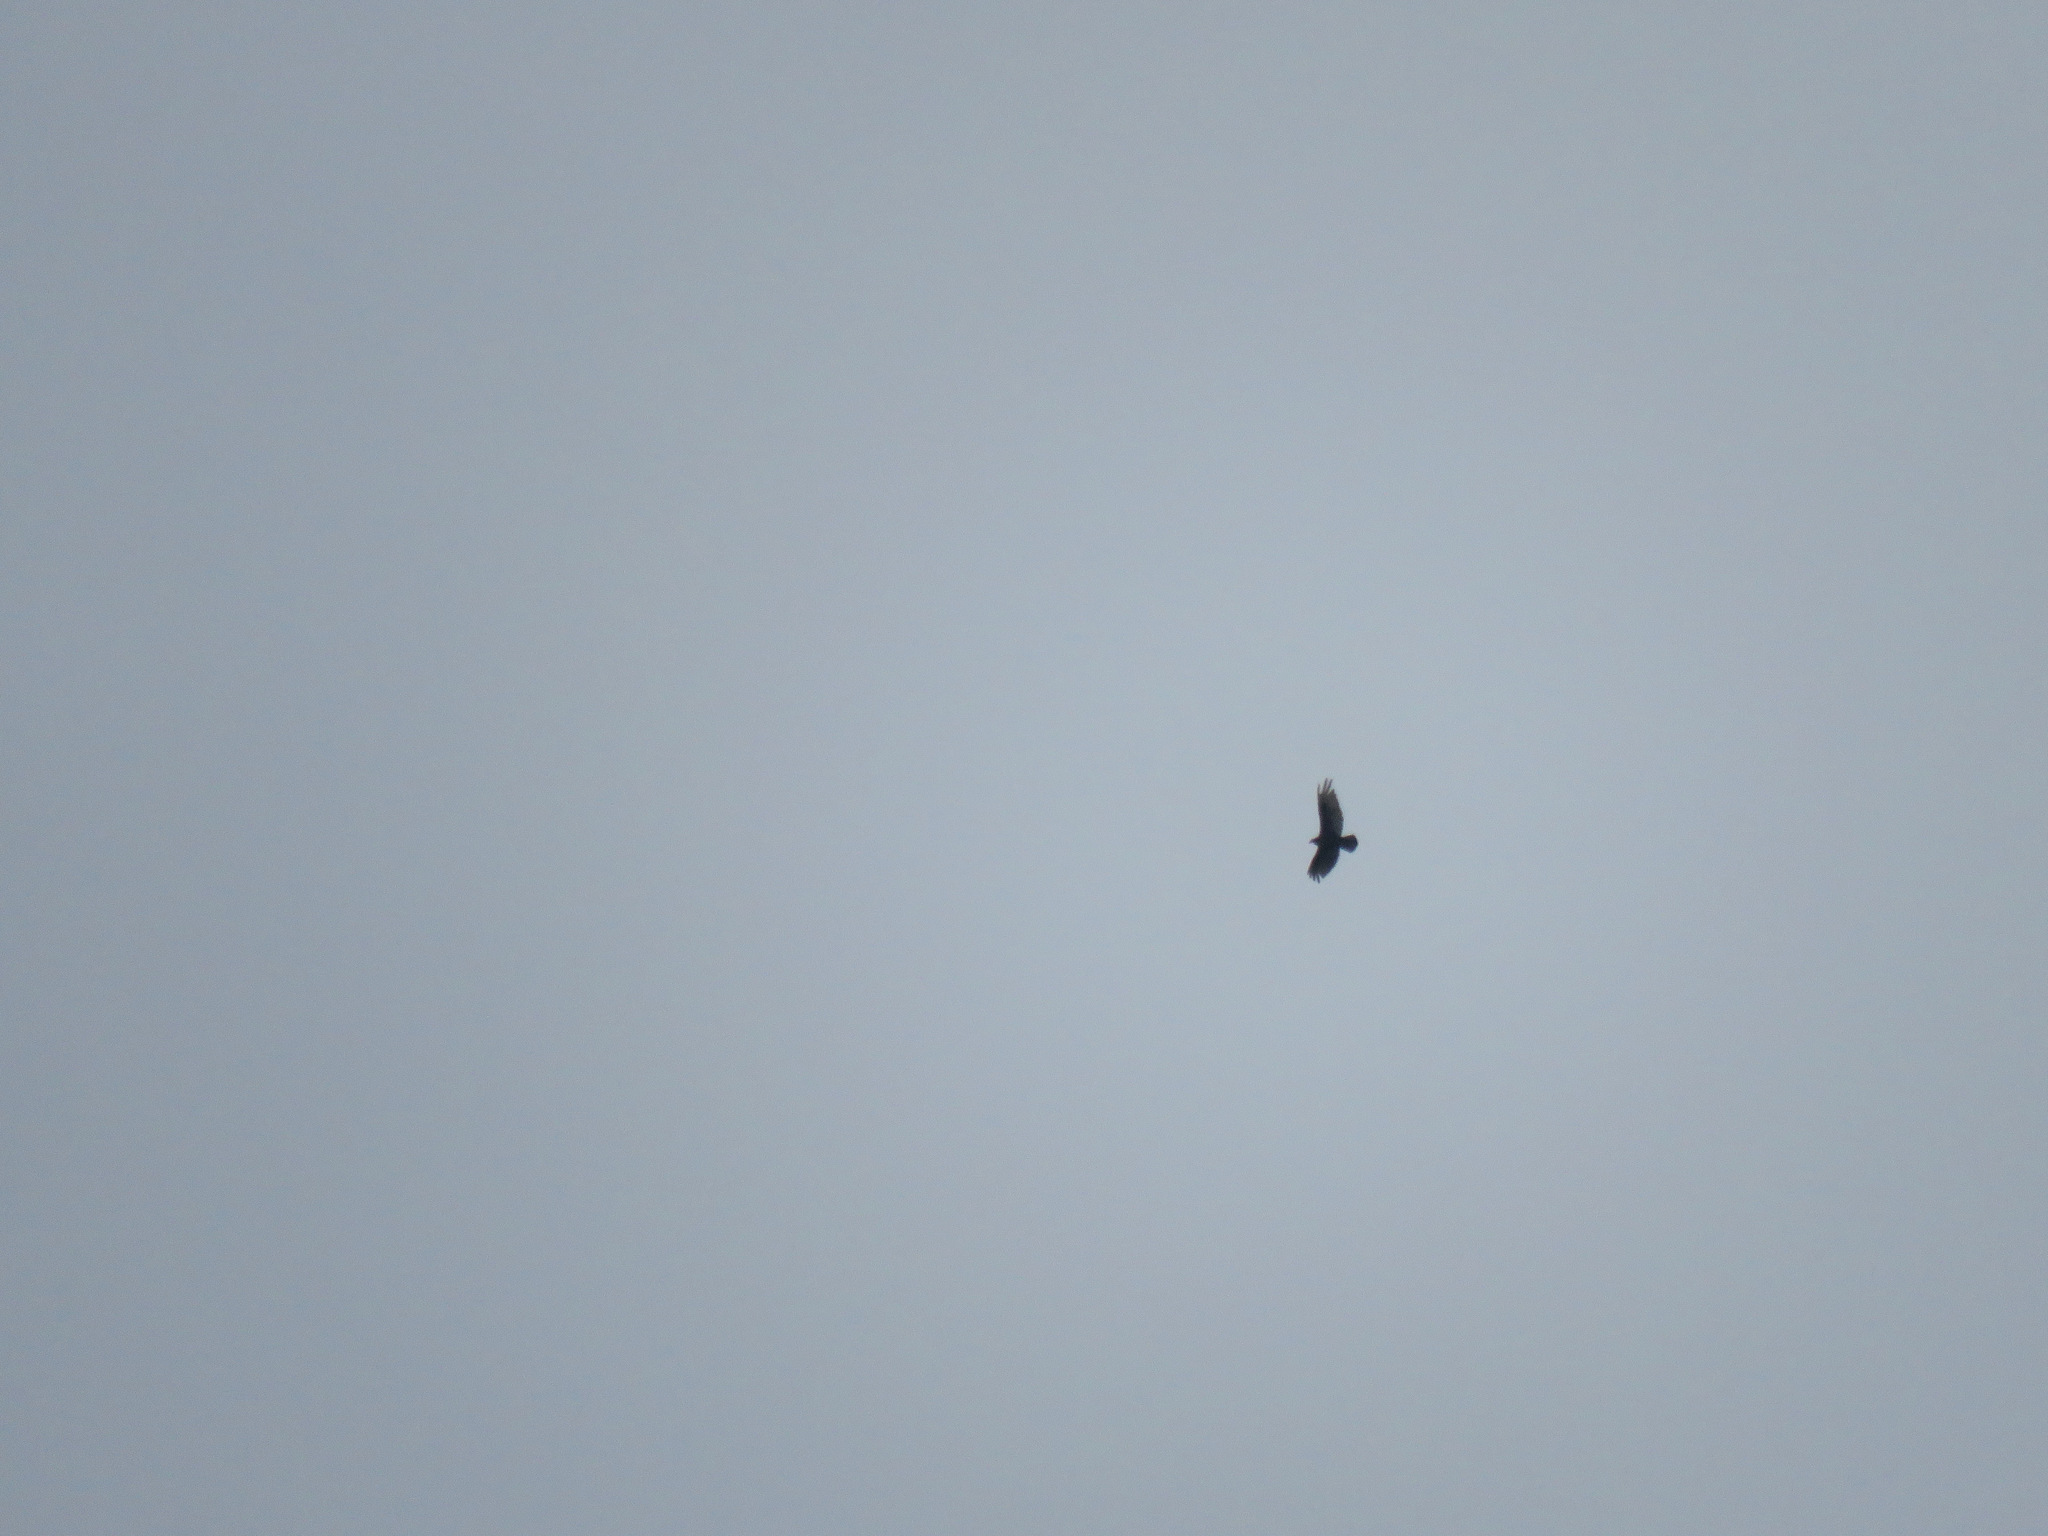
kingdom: Animalia
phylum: Chordata
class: Aves
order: Accipitriformes
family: Cathartidae
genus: Cathartes
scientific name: Cathartes aura
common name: Turkey vulture
